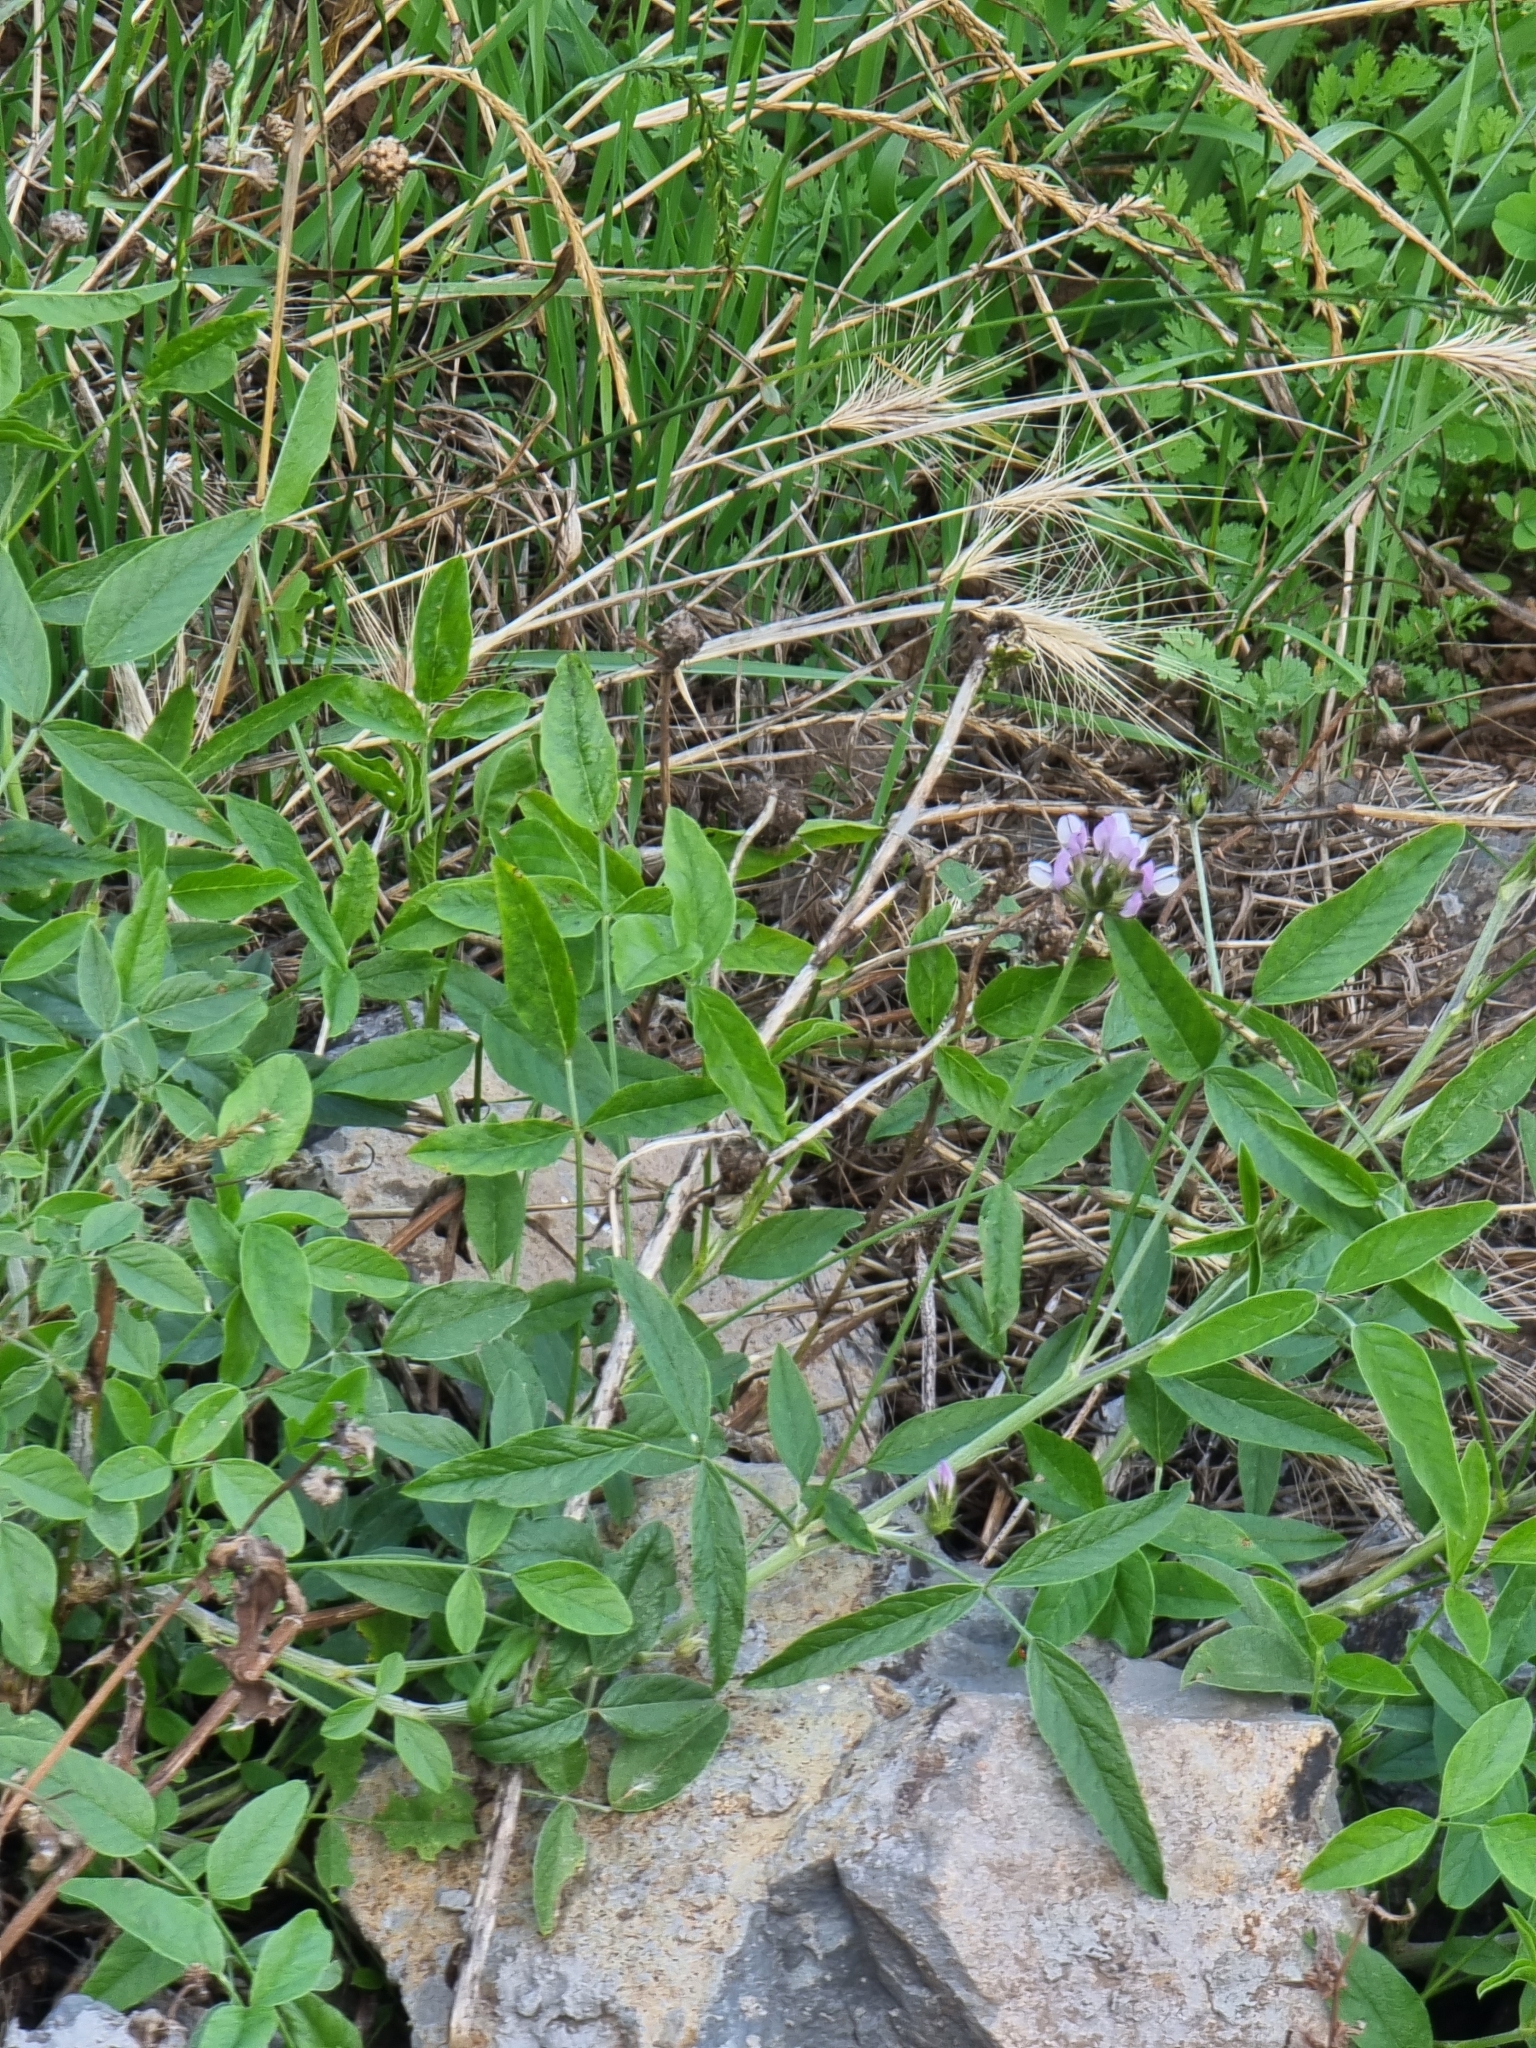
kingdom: Plantae
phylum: Tracheophyta
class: Magnoliopsida
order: Fabales
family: Fabaceae
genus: Bituminaria
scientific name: Bituminaria bituminosa
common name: Arabian pea
